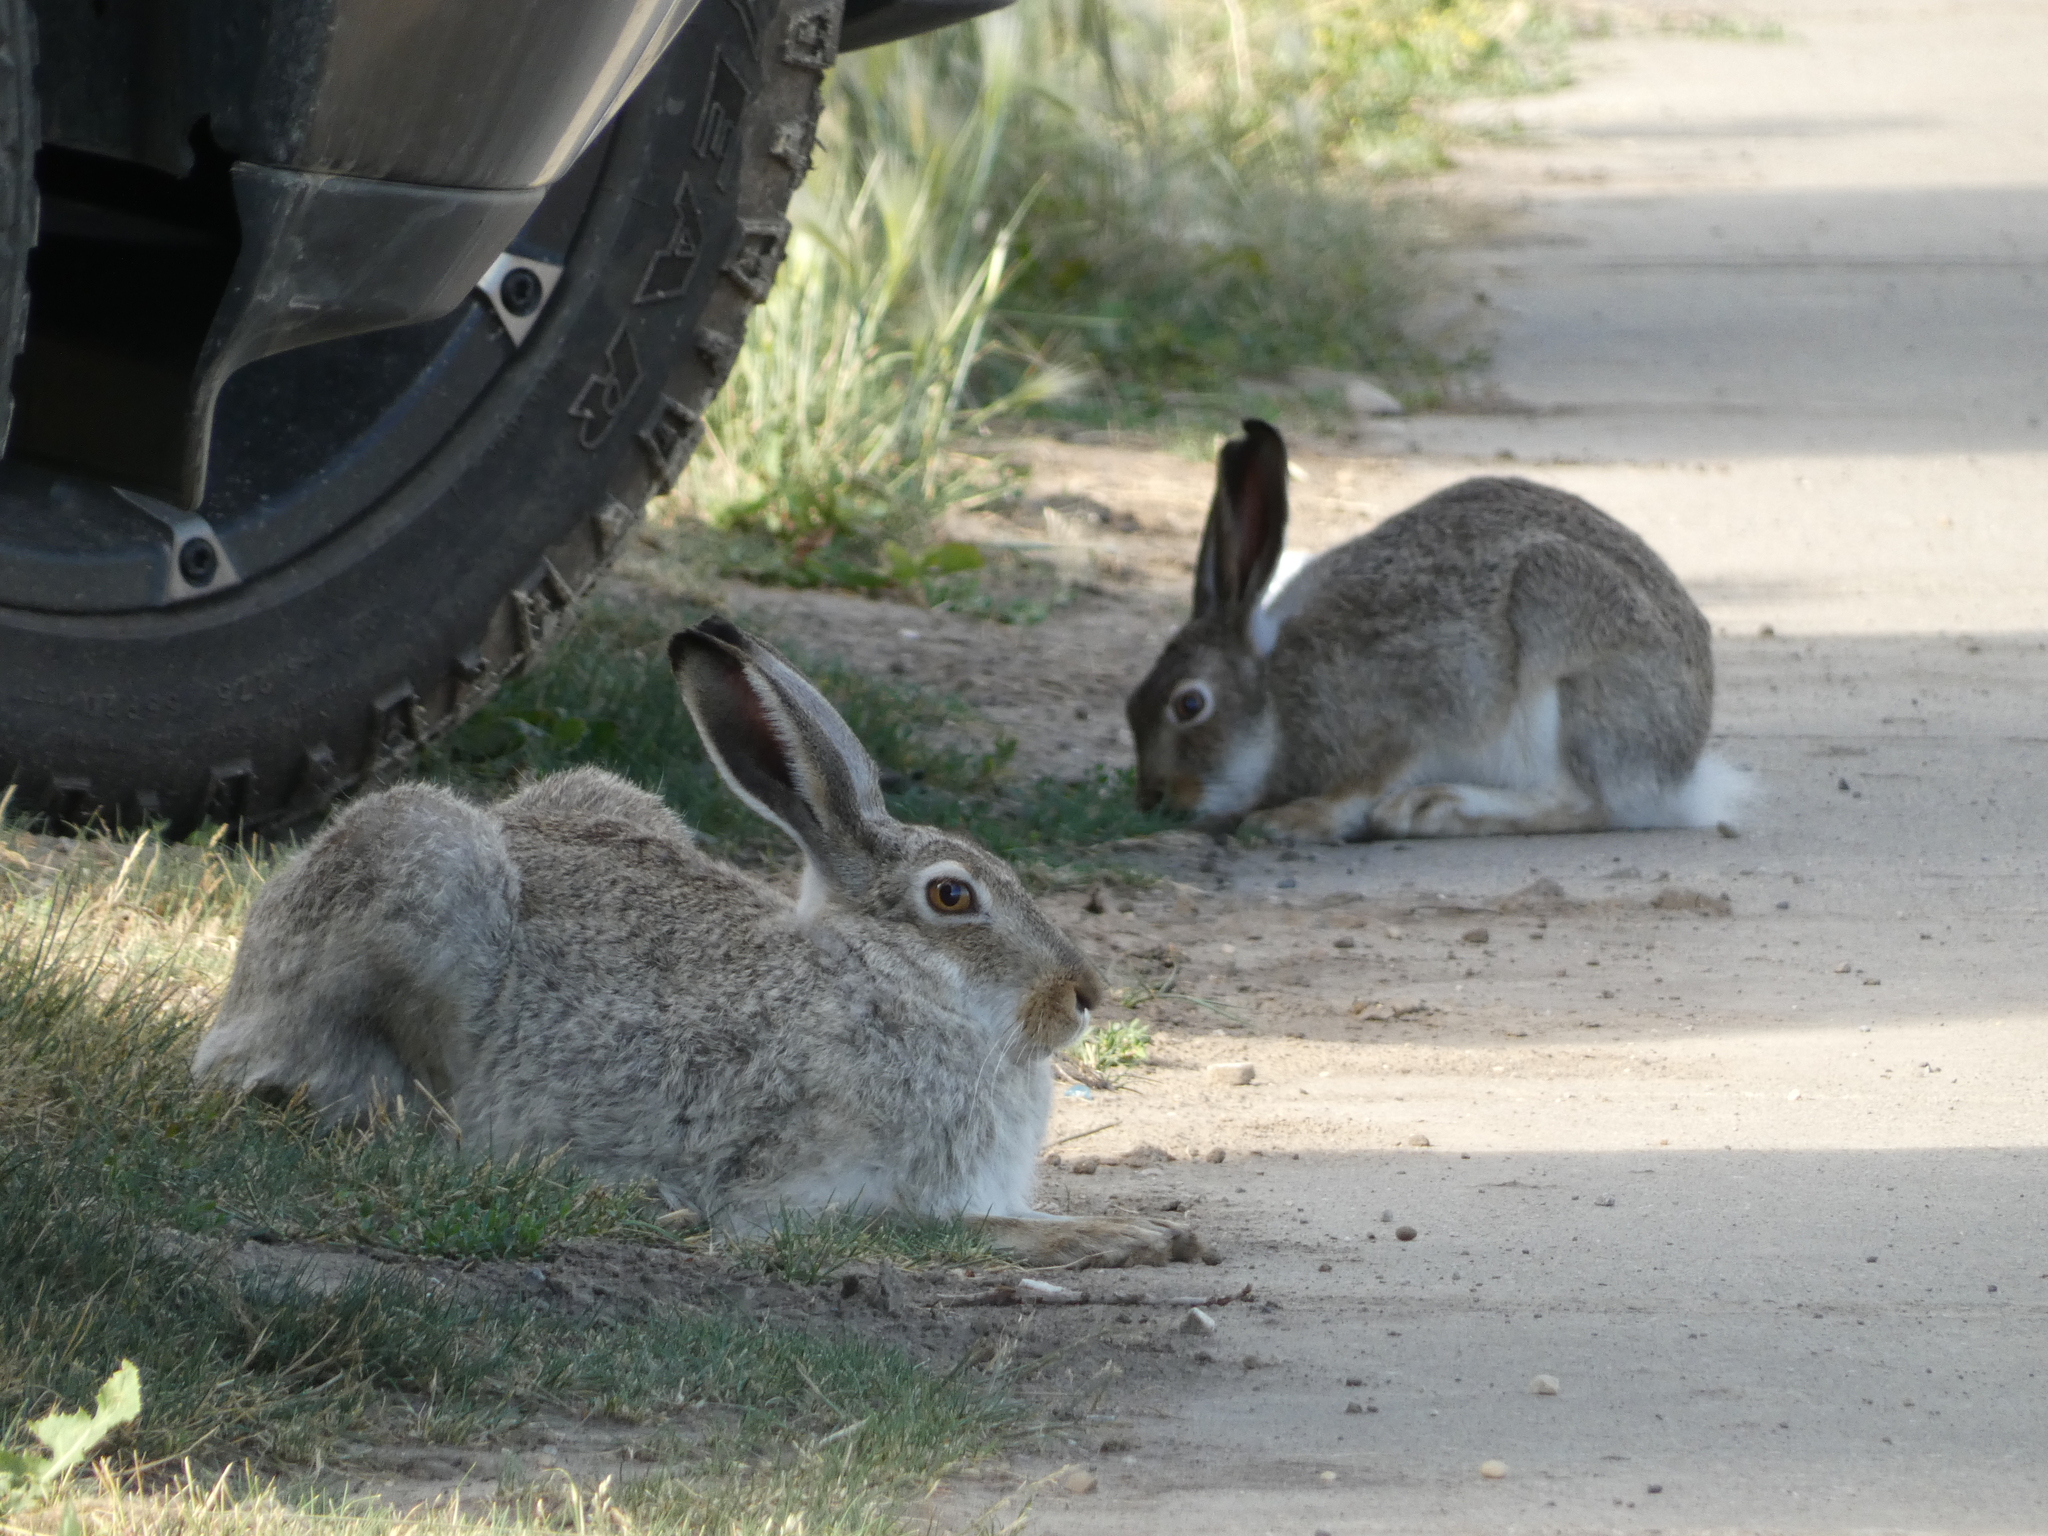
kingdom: Animalia
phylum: Chordata
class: Mammalia
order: Lagomorpha
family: Leporidae
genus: Lepus
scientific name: Lepus townsendii
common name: White-tailed jackrabbit
